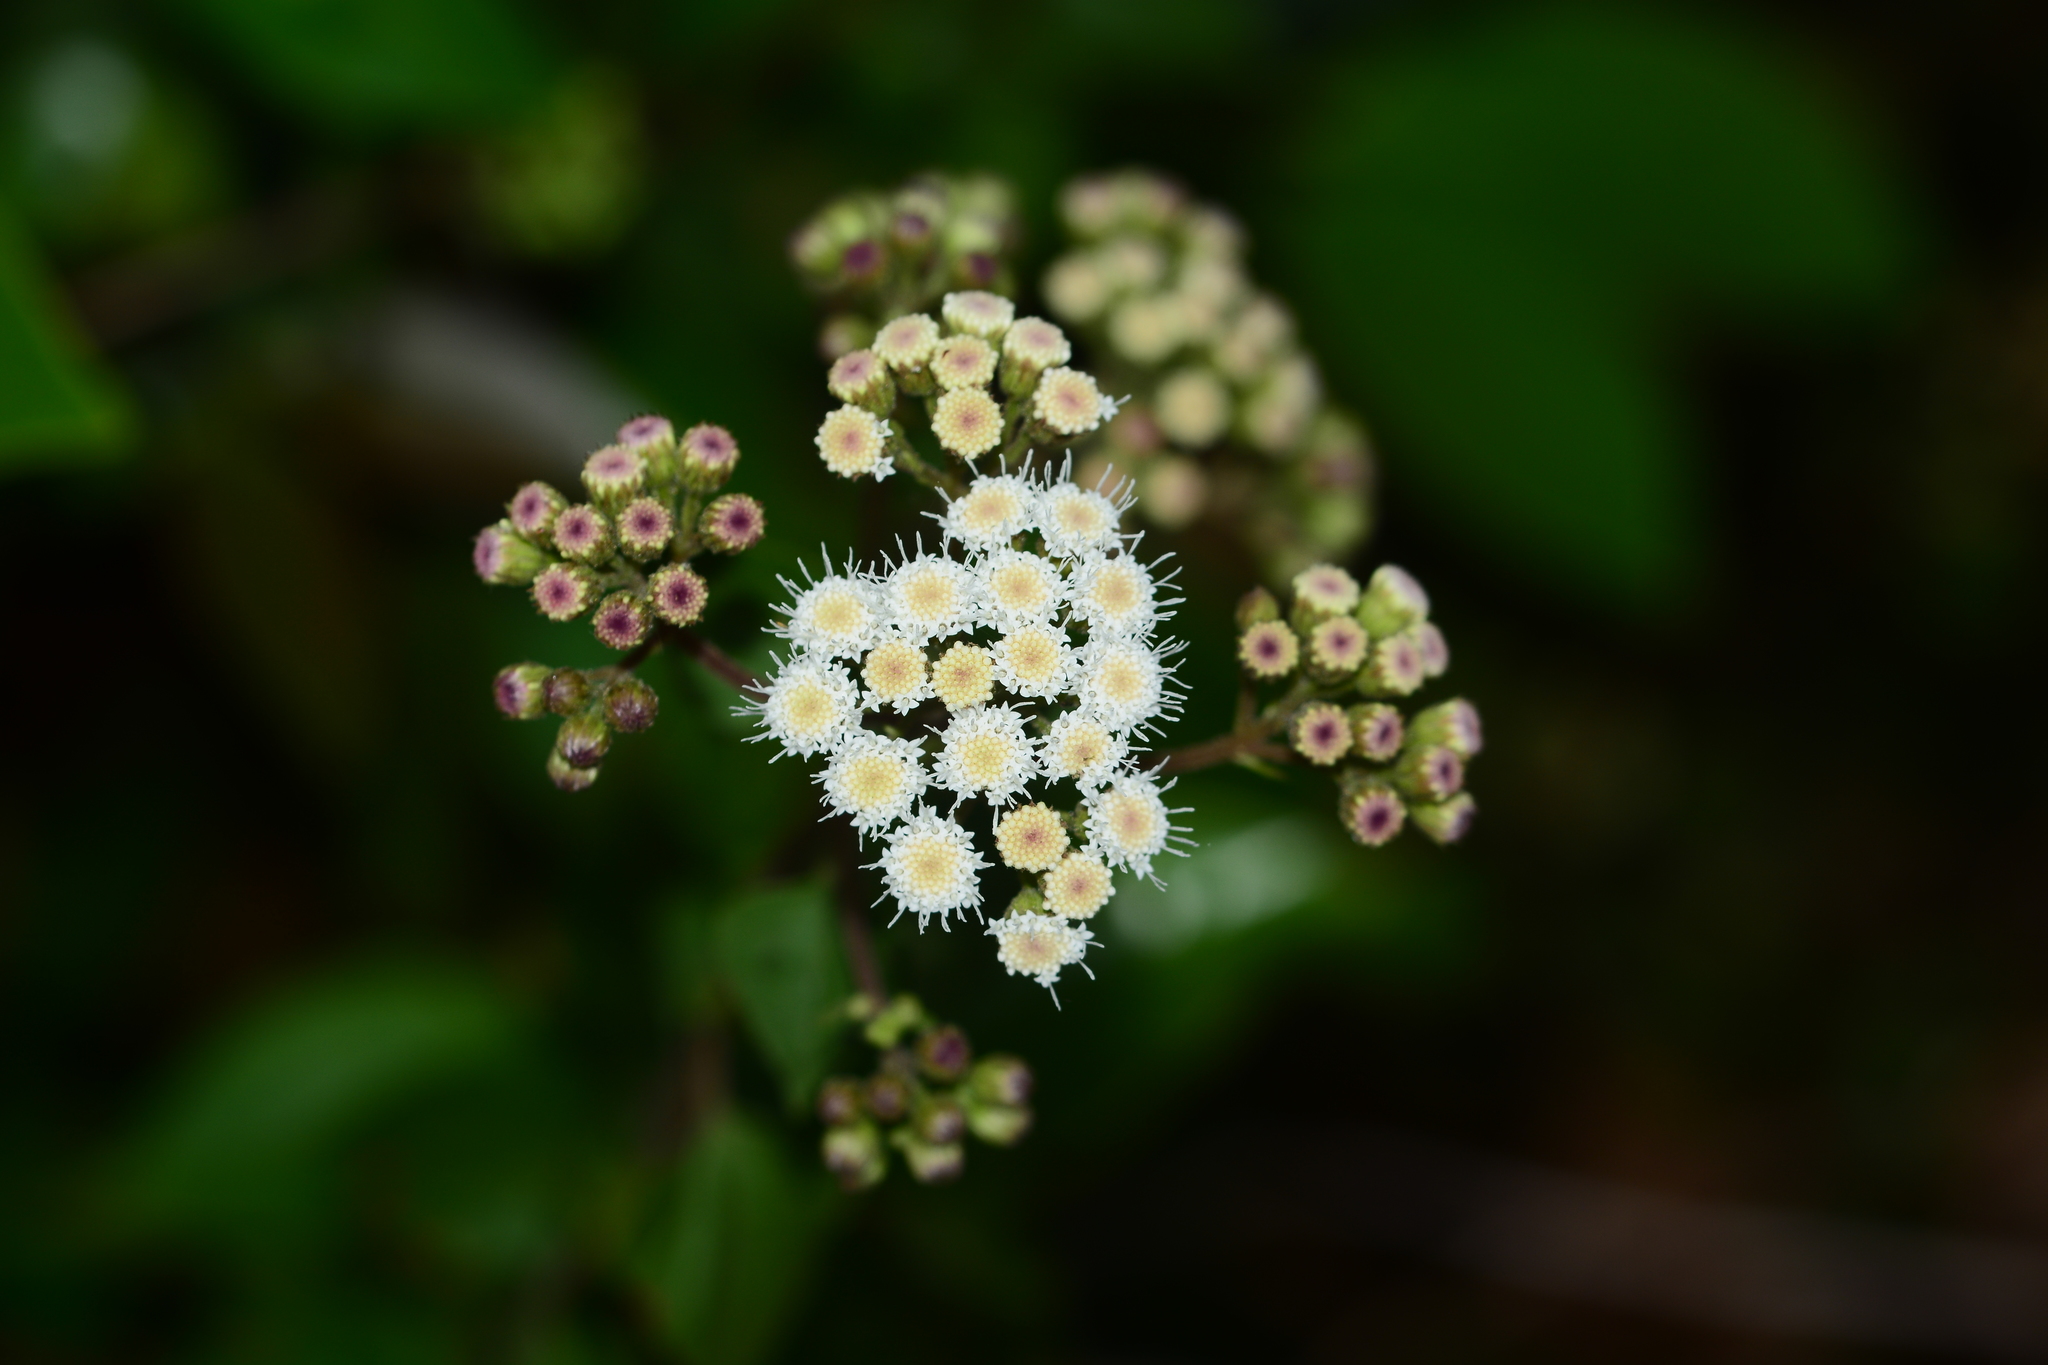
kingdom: Plantae
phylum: Tracheophyta
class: Magnoliopsida
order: Asterales
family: Asteraceae
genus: Ageratina
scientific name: Ageratina adenophora
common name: Sticky snakeroot
